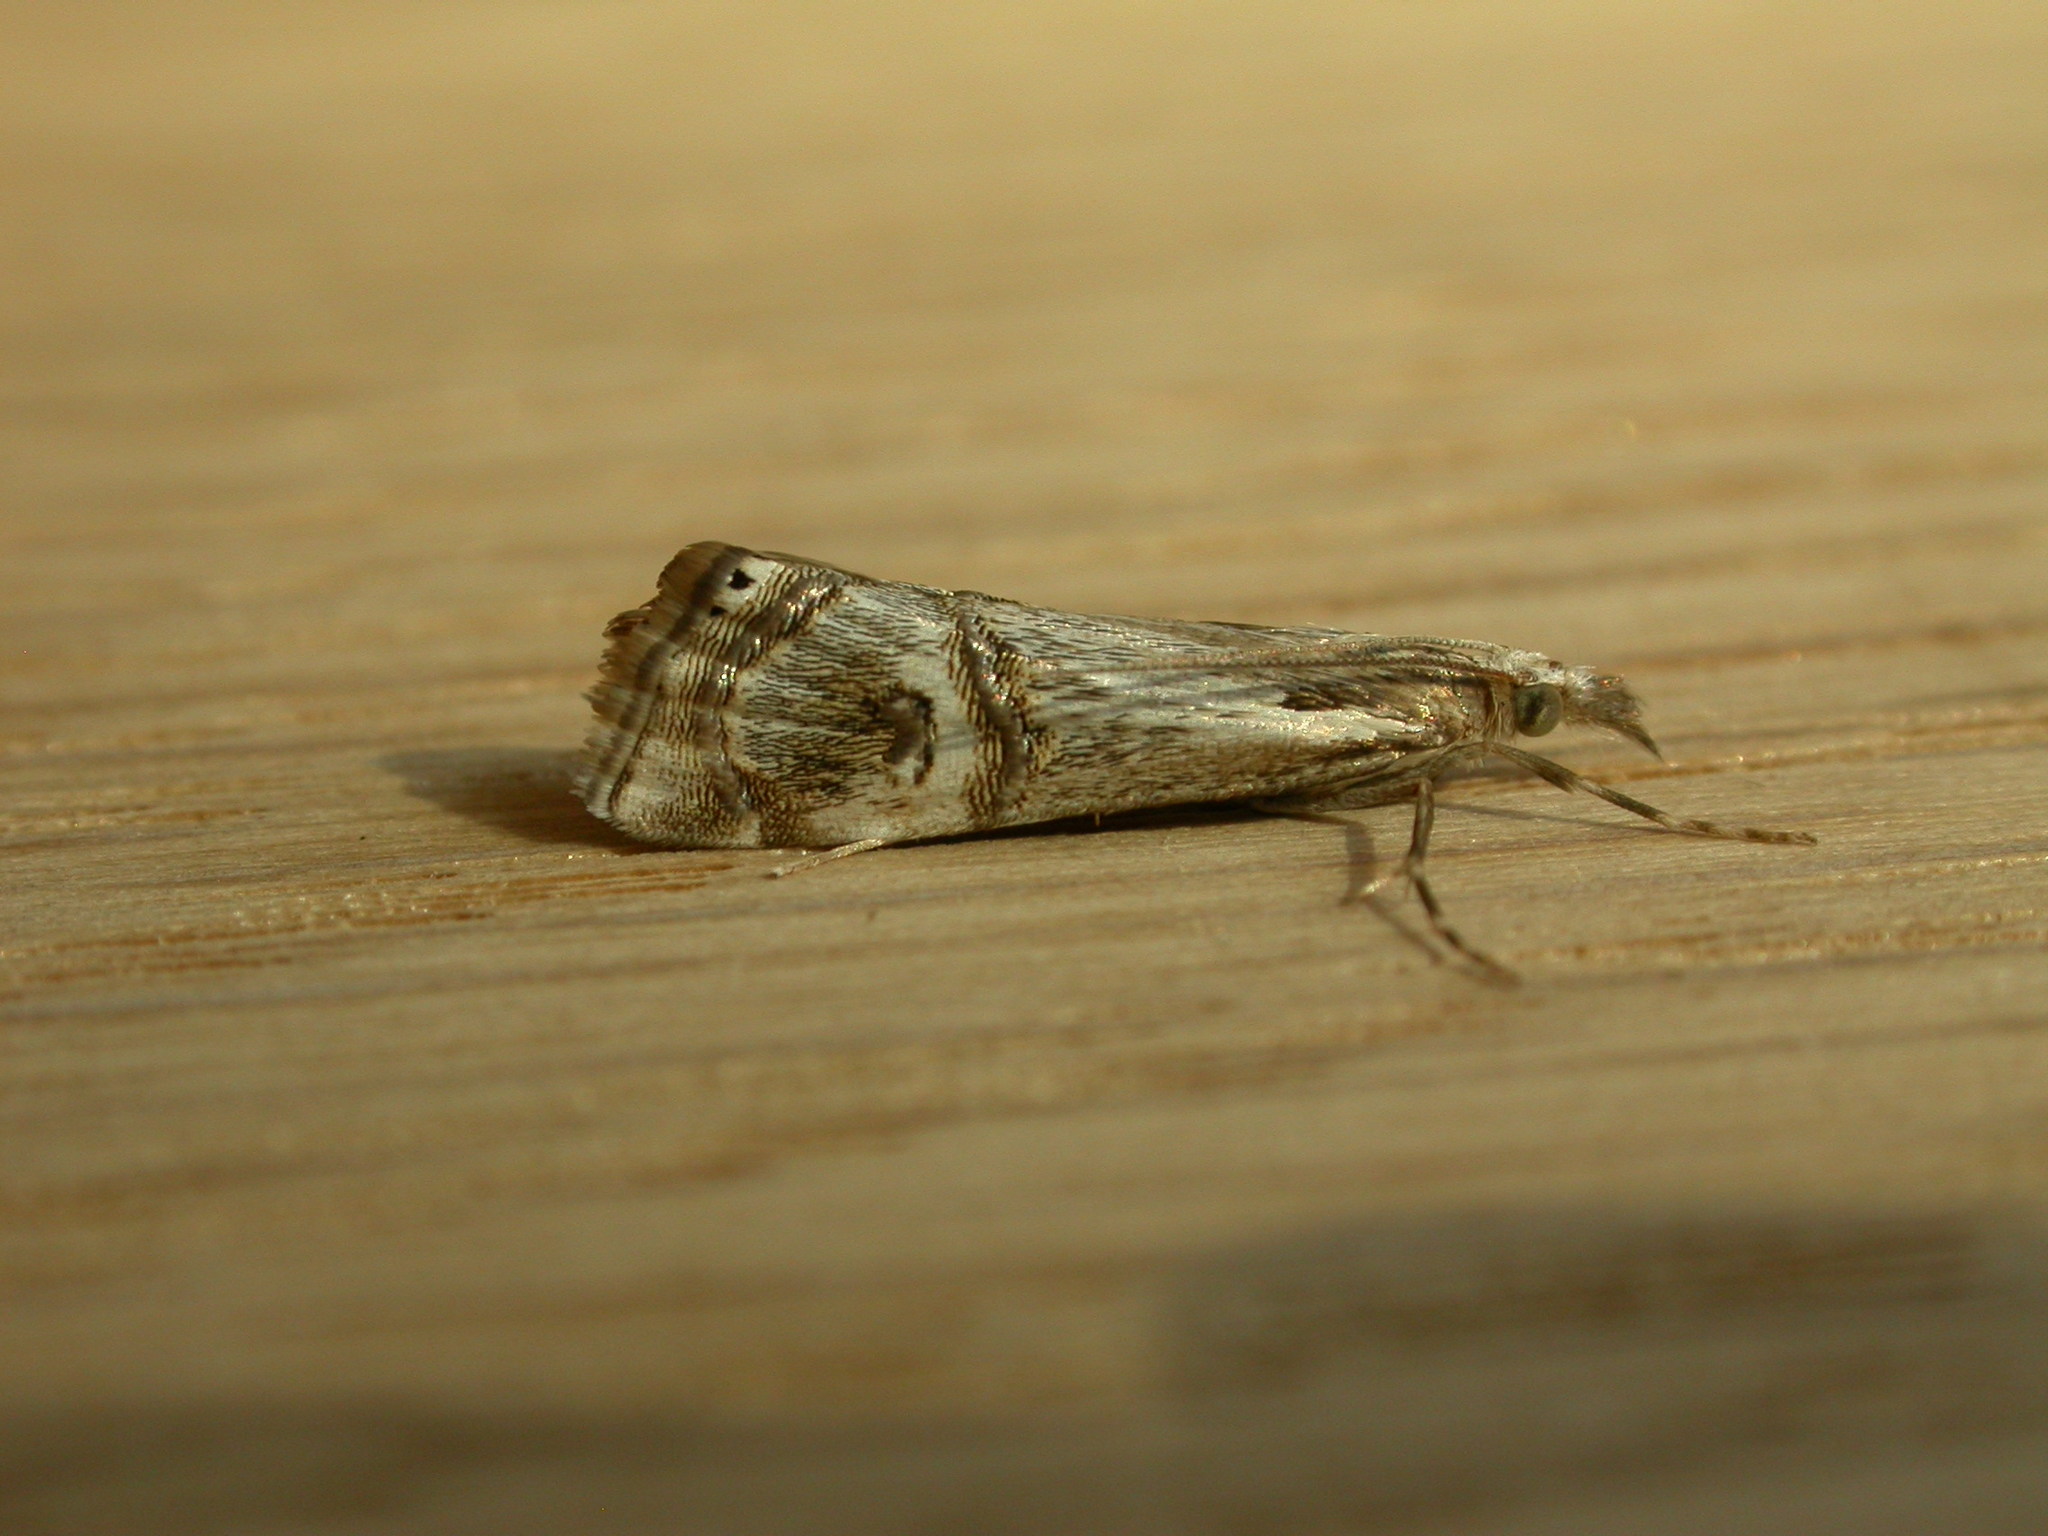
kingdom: Animalia
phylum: Arthropoda
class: Insecta
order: Lepidoptera
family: Crambidae
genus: Hednota
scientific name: Hednota longipalpella
